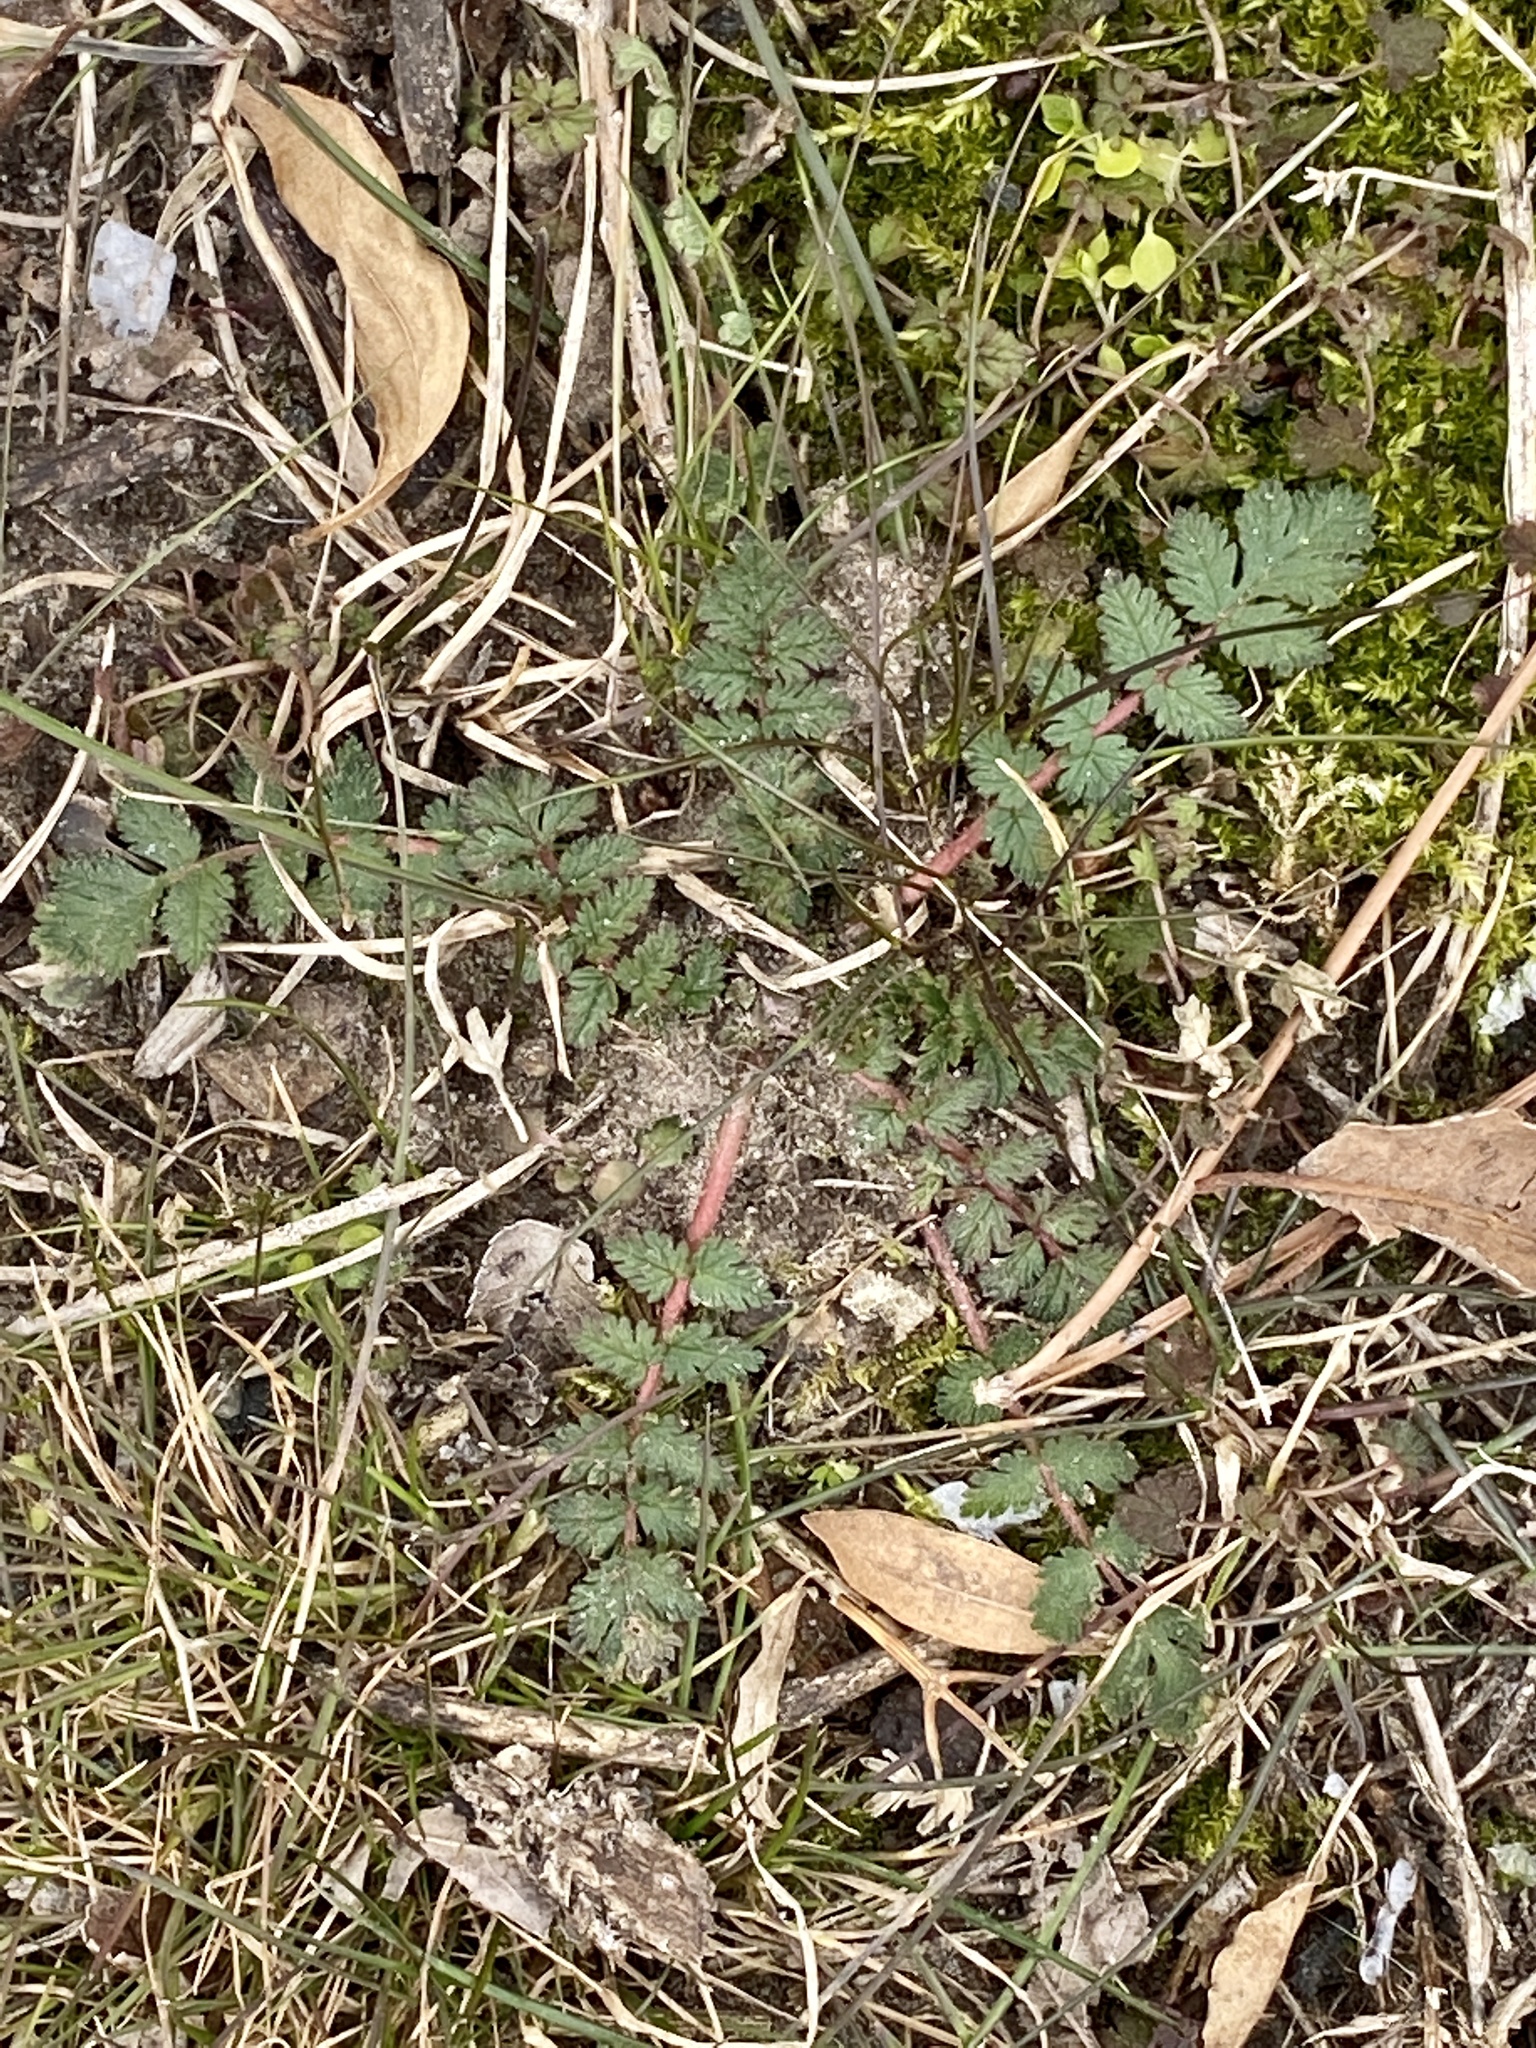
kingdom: Plantae
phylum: Tracheophyta
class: Magnoliopsida
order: Geraniales
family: Geraniaceae
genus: Erodium
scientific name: Erodium cicutarium
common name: Common stork's-bill
